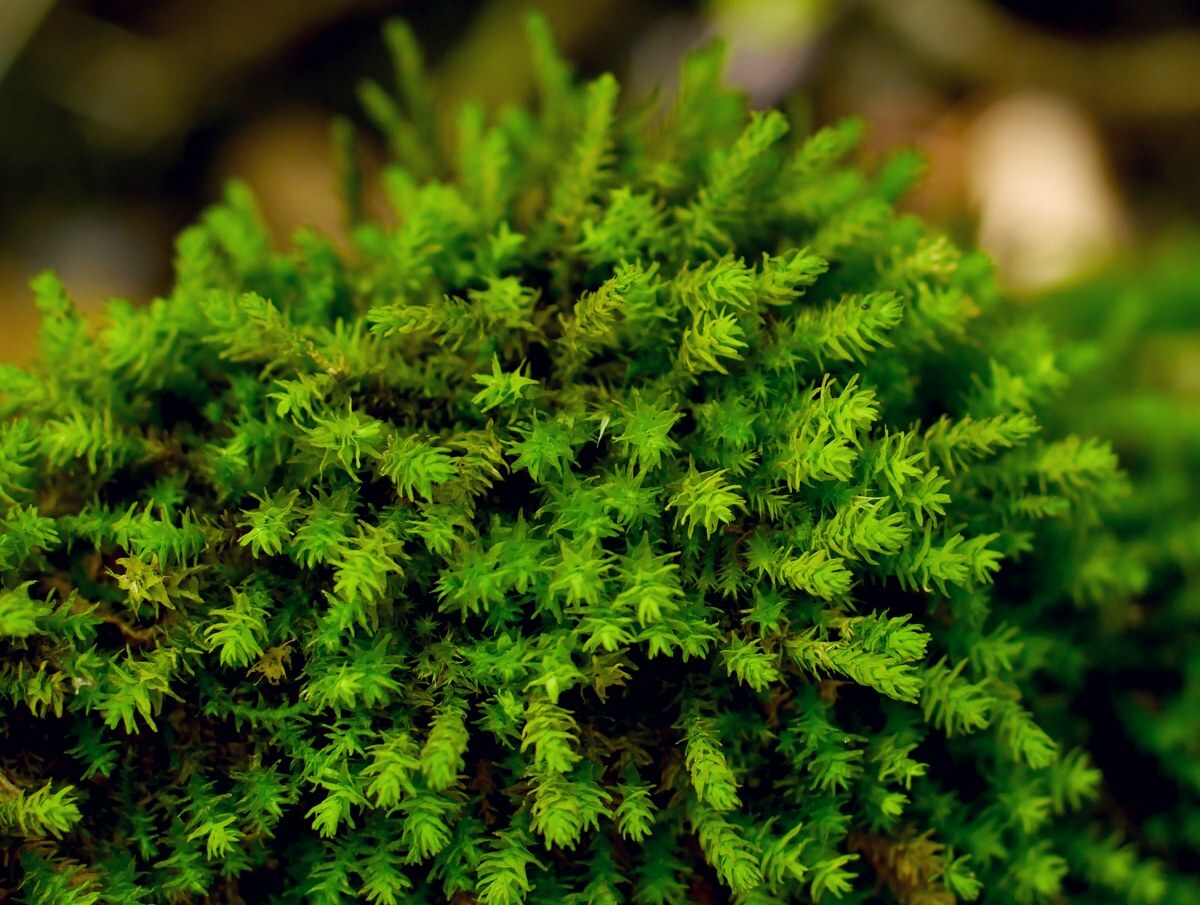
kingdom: Plantae
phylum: Bryophyta
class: Bryopsida
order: Hypnales
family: Anomodontaceae
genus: Anomodon
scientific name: Anomodon viticulosus
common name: Tall anomodon
